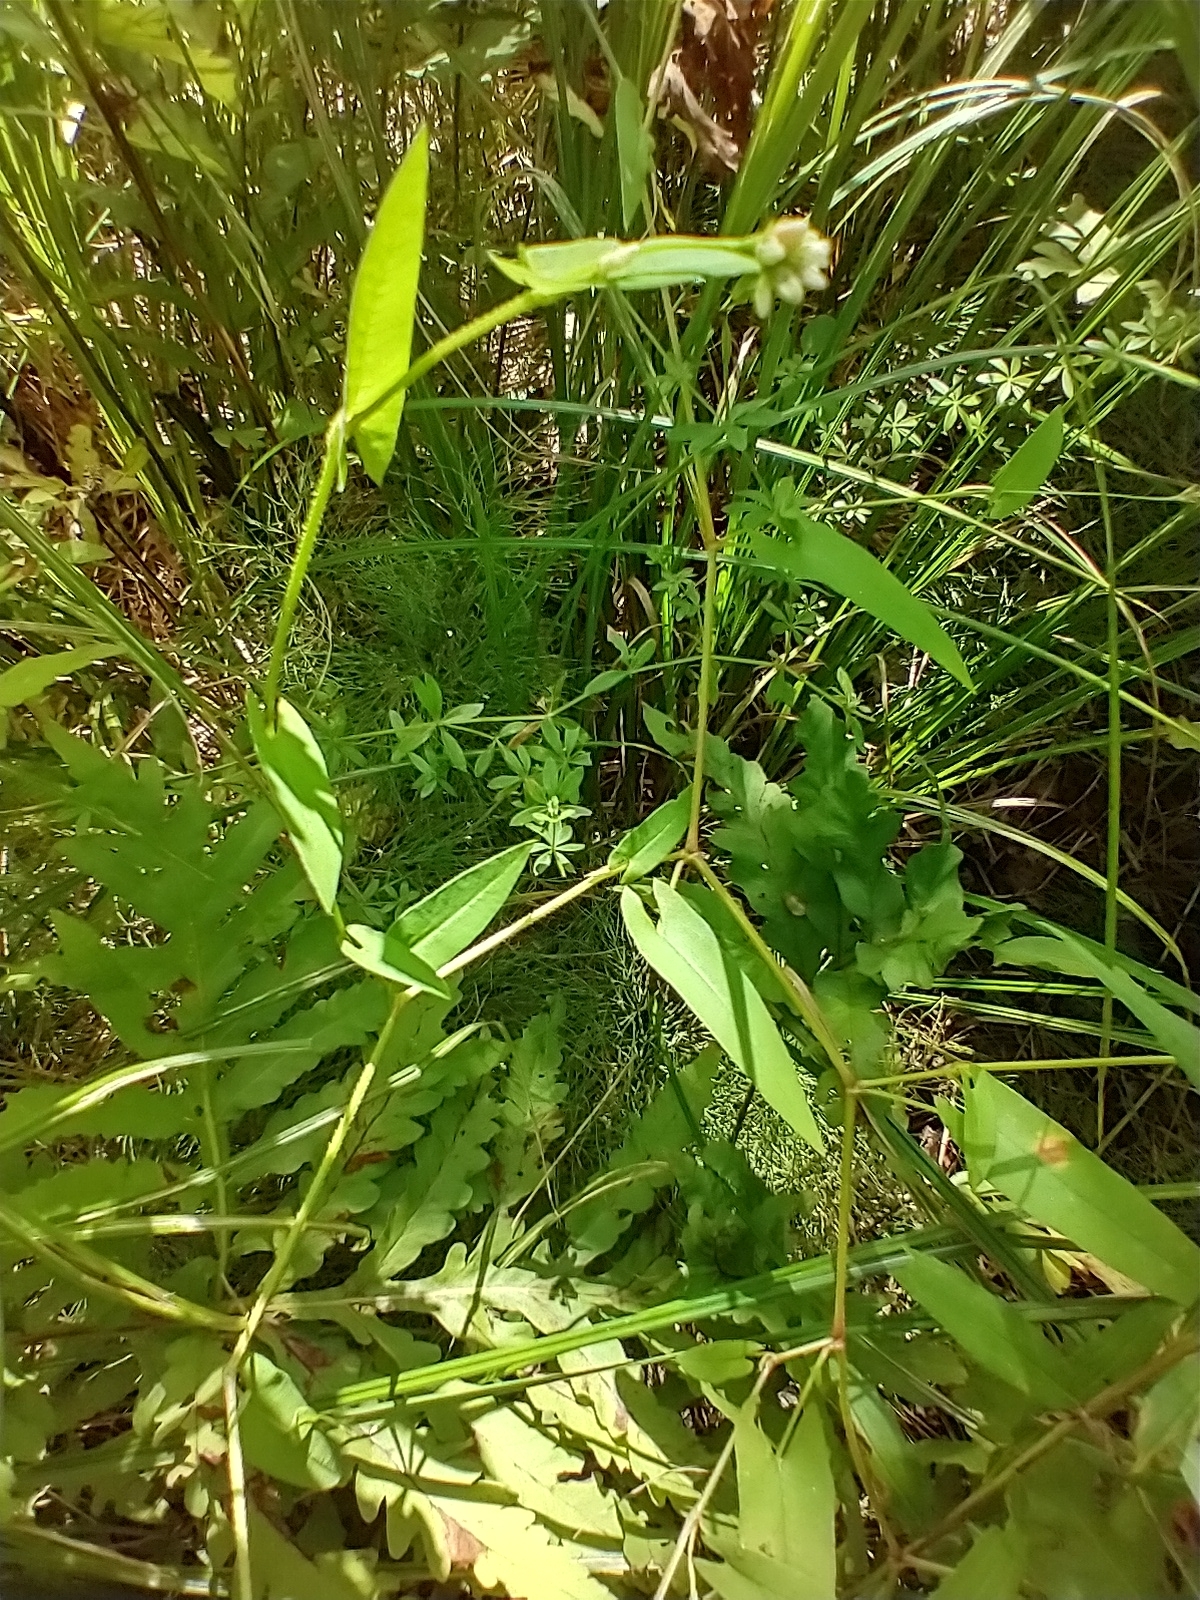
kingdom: Plantae
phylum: Tracheophyta
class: Magnoliopsida
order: Caryophyllales
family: Polygonaceae
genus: Persicaria
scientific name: Persicaria sagittata
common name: American tearthumb
